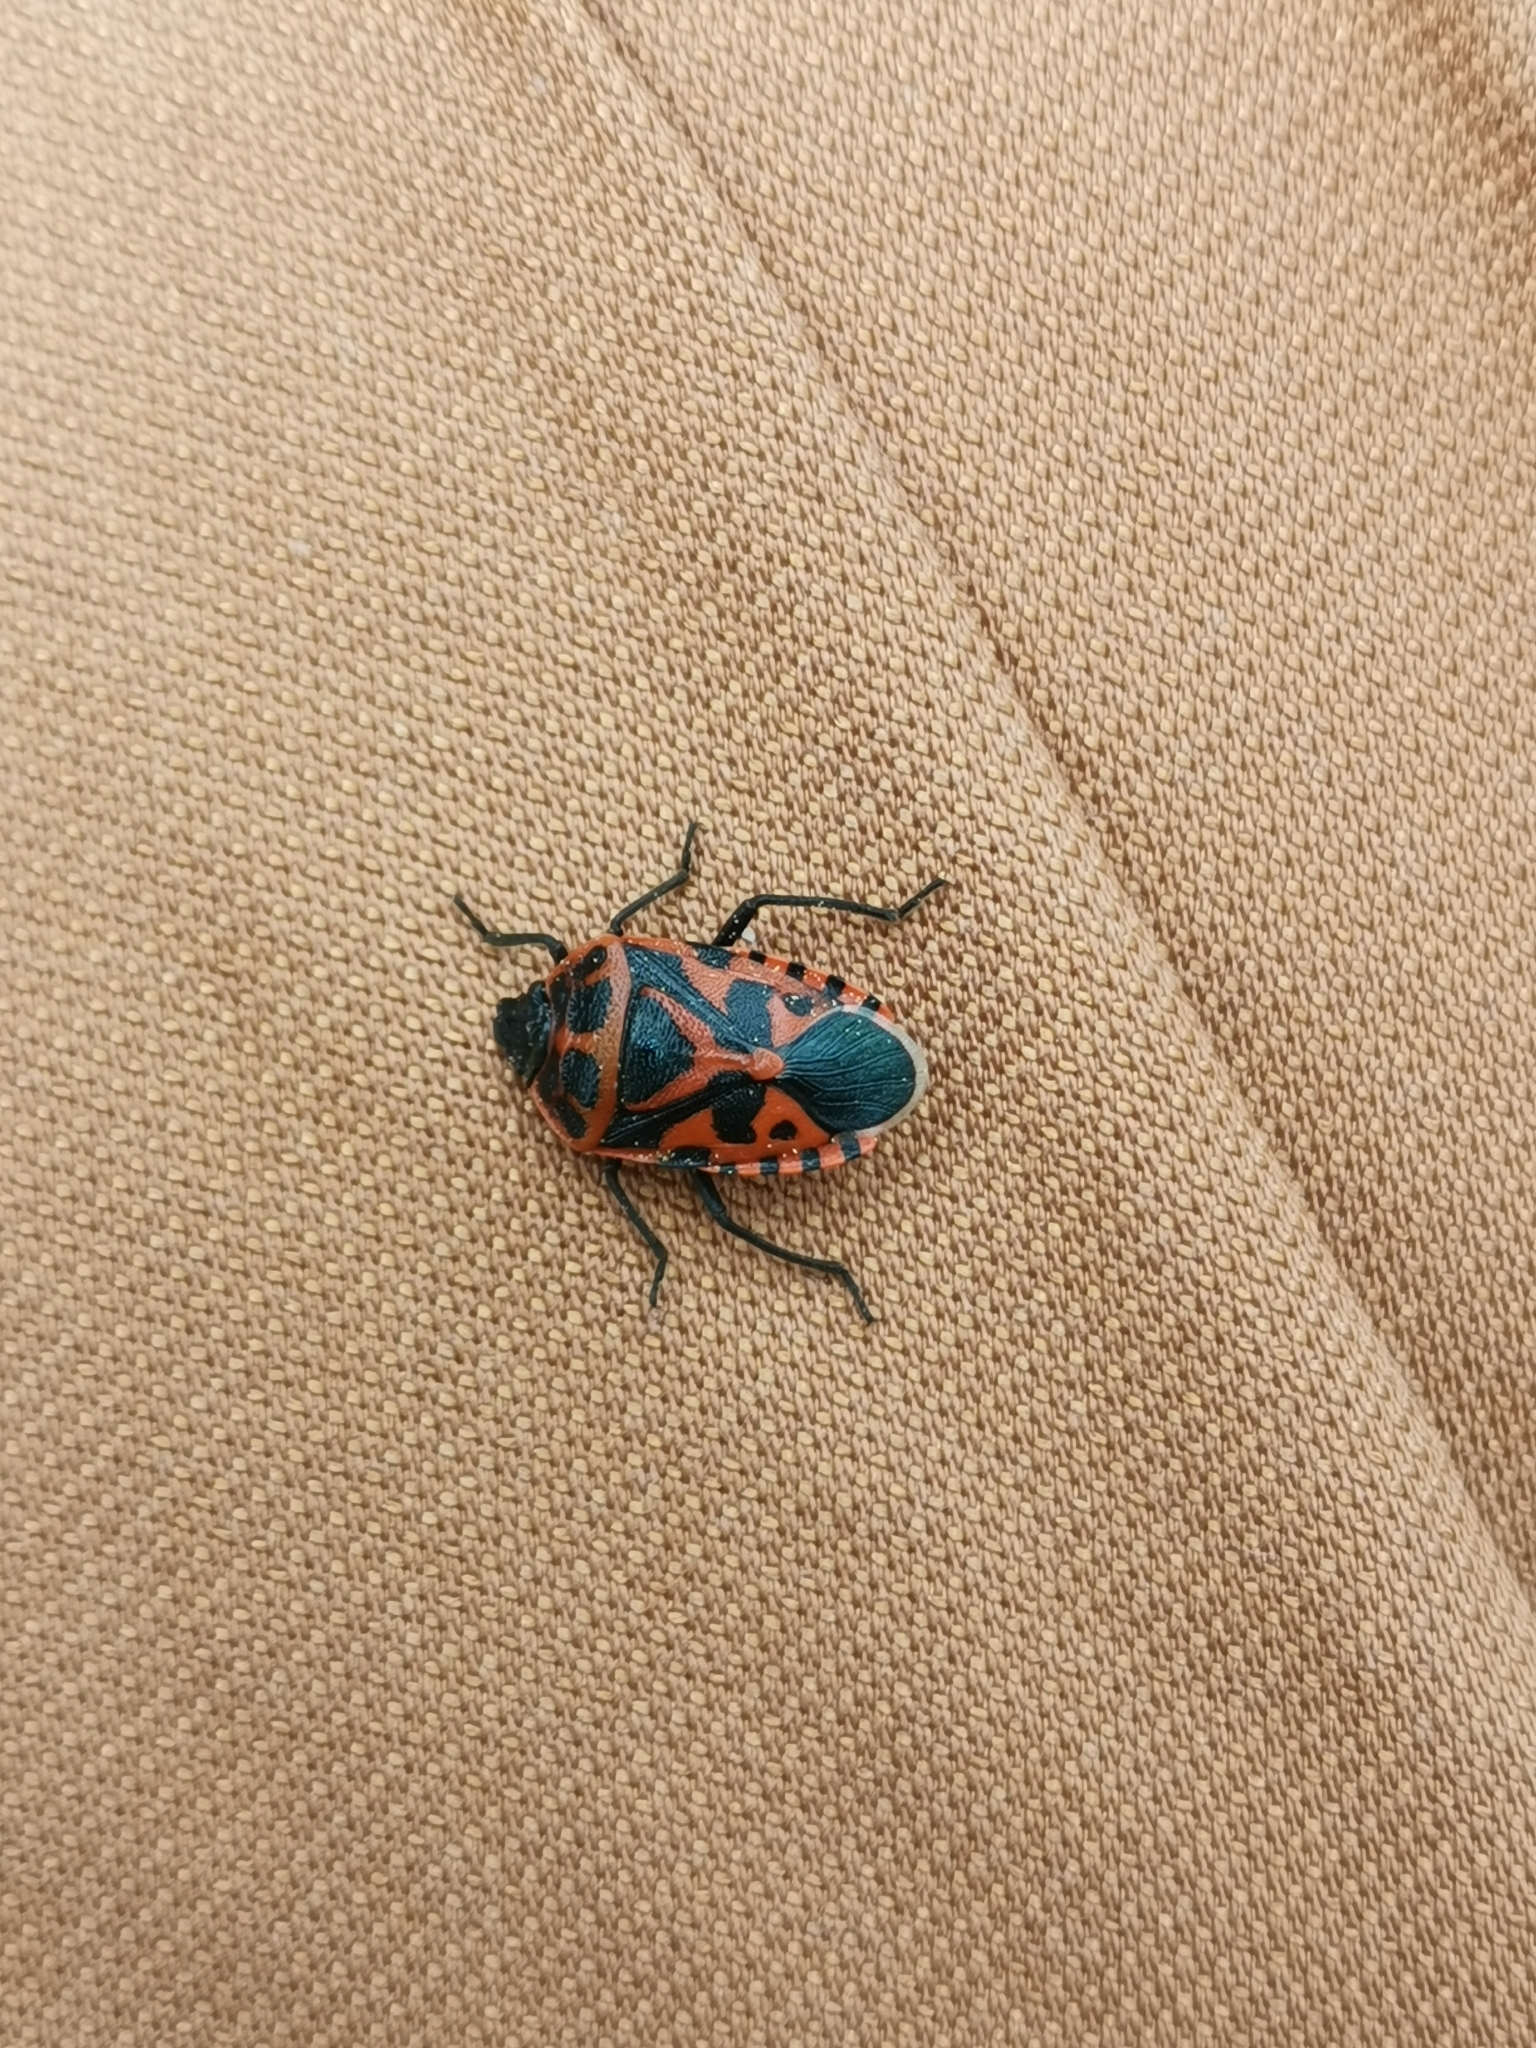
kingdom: Animalia
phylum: Arthropoda
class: Insecta
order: Hemiptera
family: Pentatomidae
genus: Eurydema
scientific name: Eurydema ventralis
